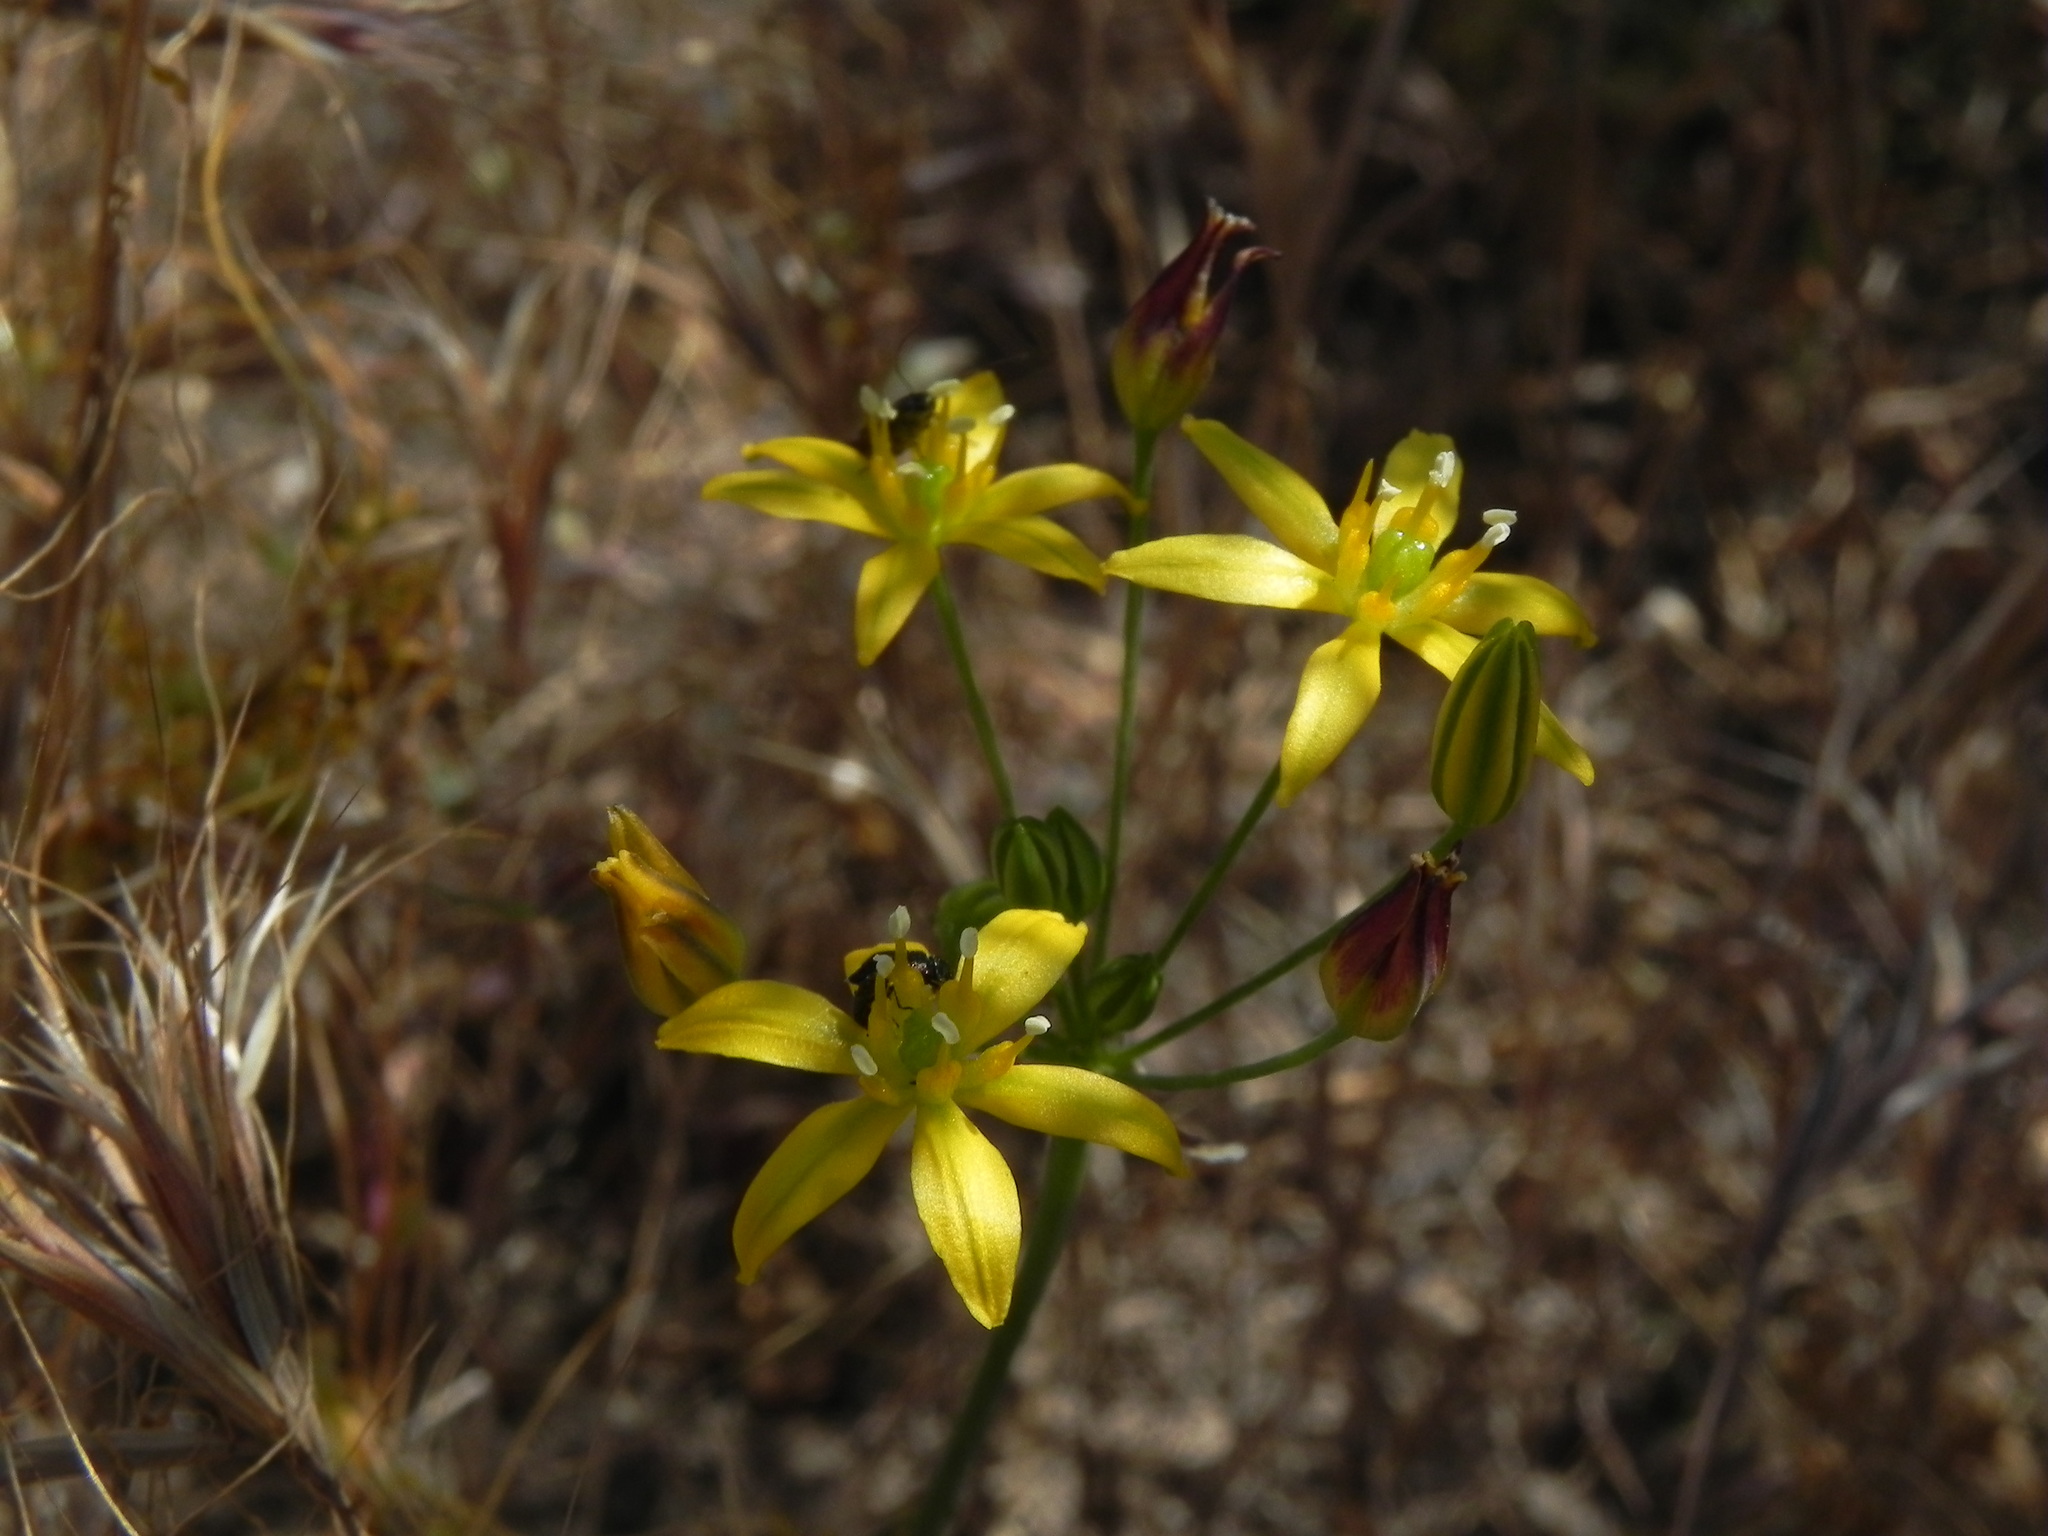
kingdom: Plantae
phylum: Tracheophyta
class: Liliopsida
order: Asparagales
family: Asparagaceae
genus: Bloomeria
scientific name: Bloomeria clevelandii
